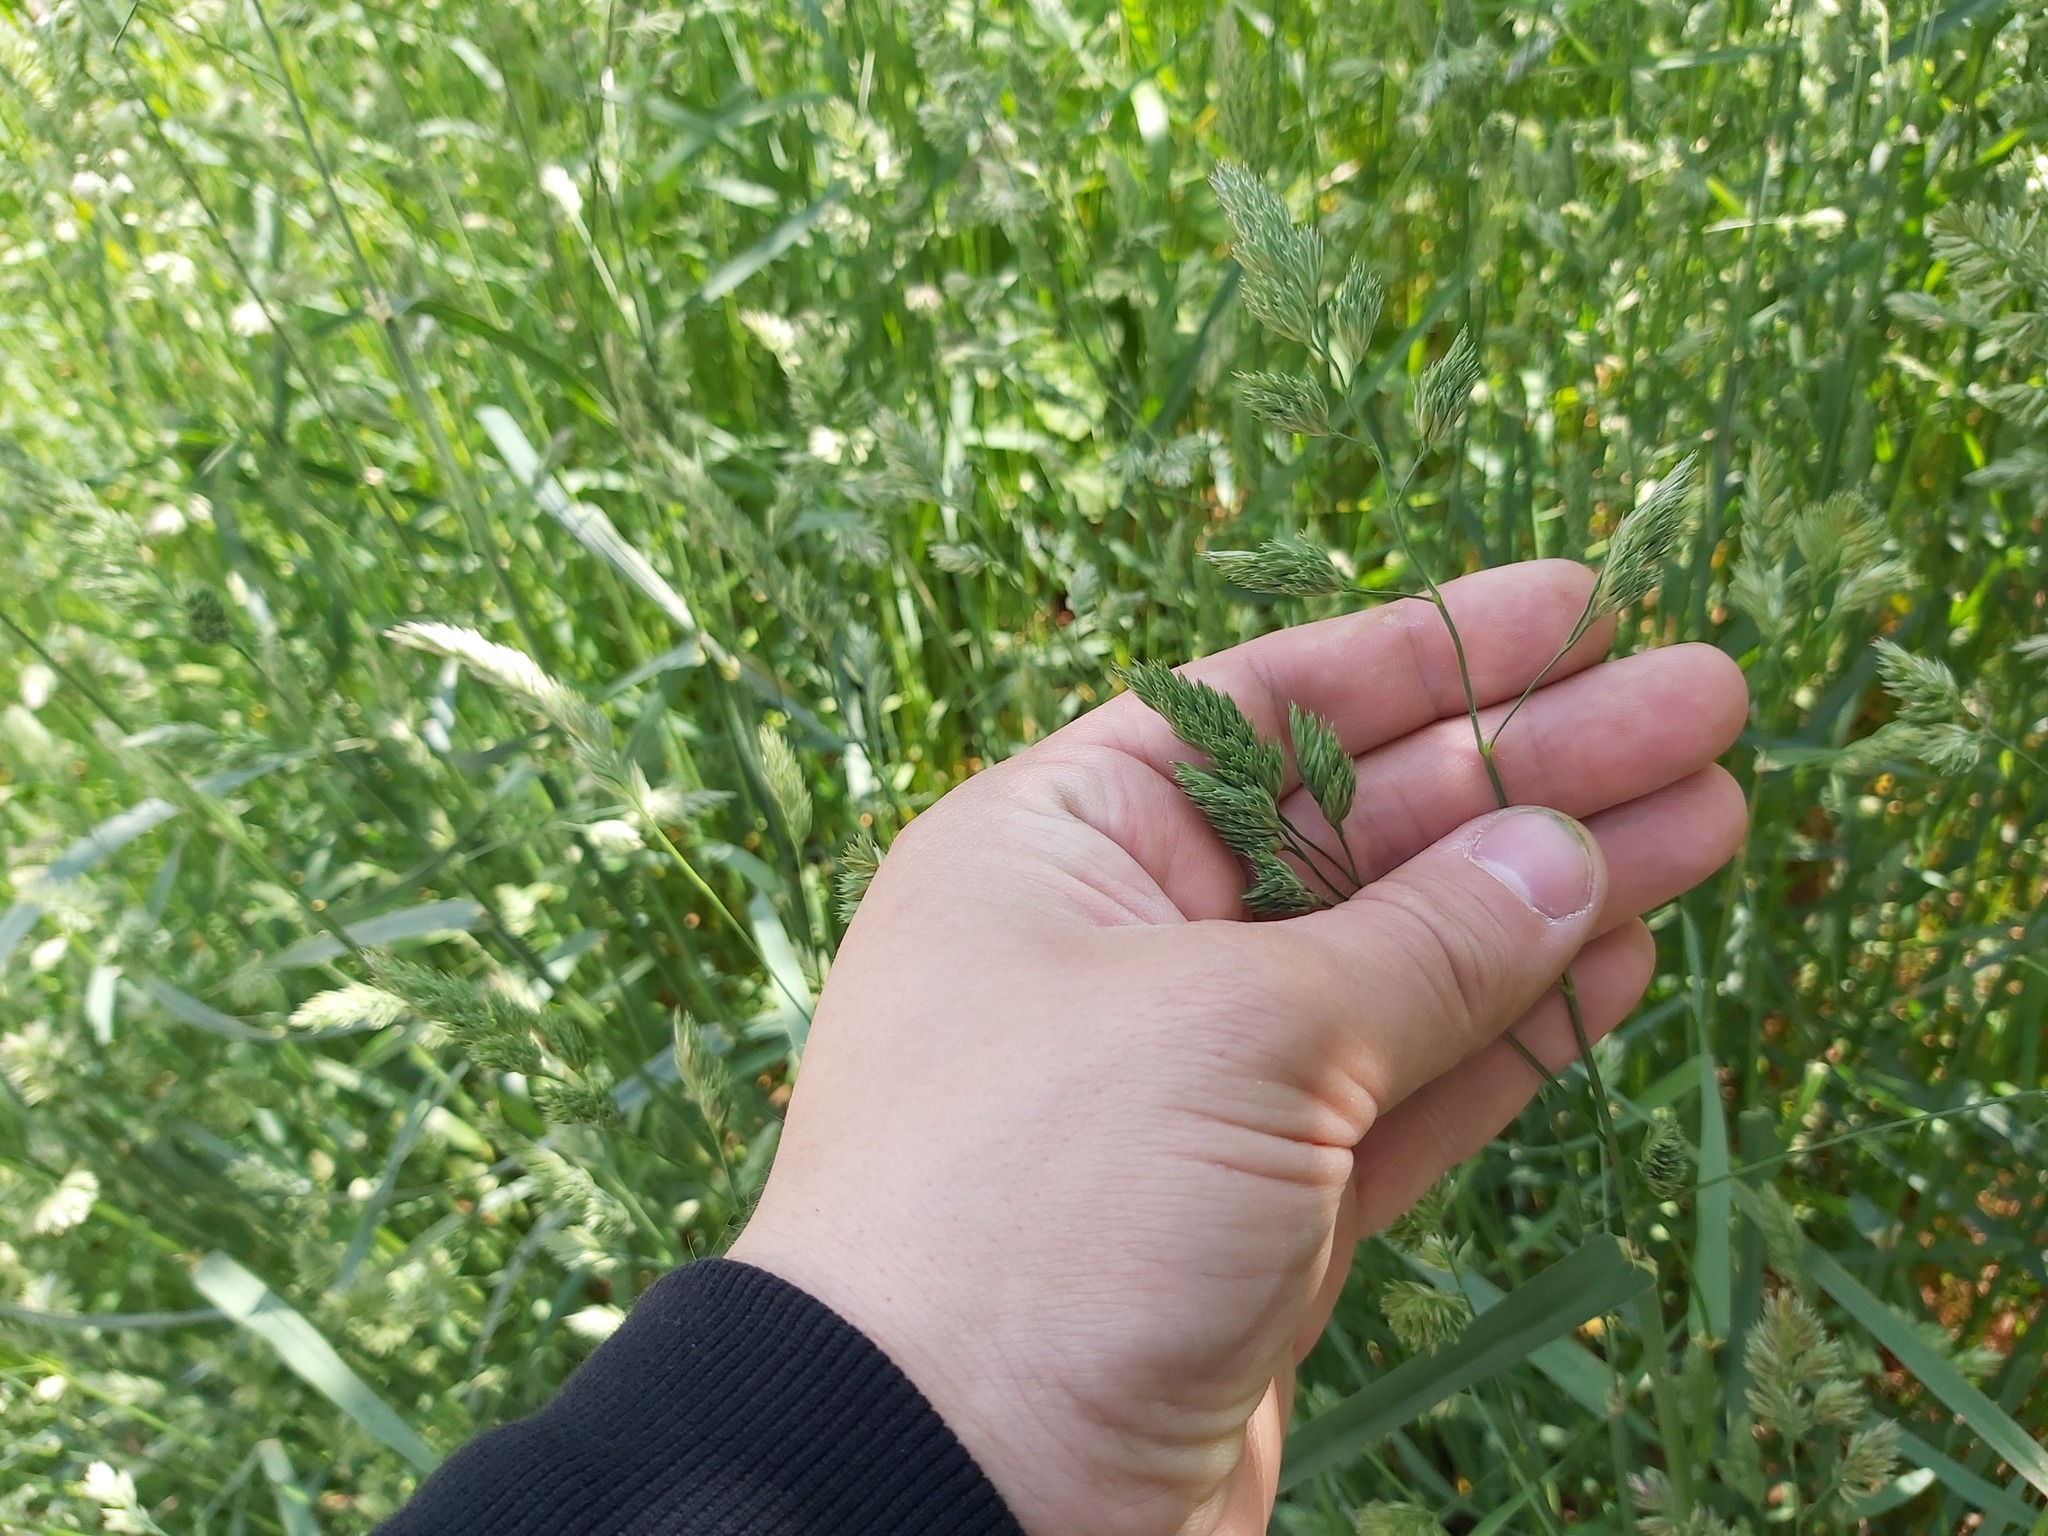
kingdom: Plantae
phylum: Tracheophyta
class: Liliopsida
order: Poales
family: Poaceae
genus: Dactylis
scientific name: Dactylis glomerata
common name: Orchardgrass
